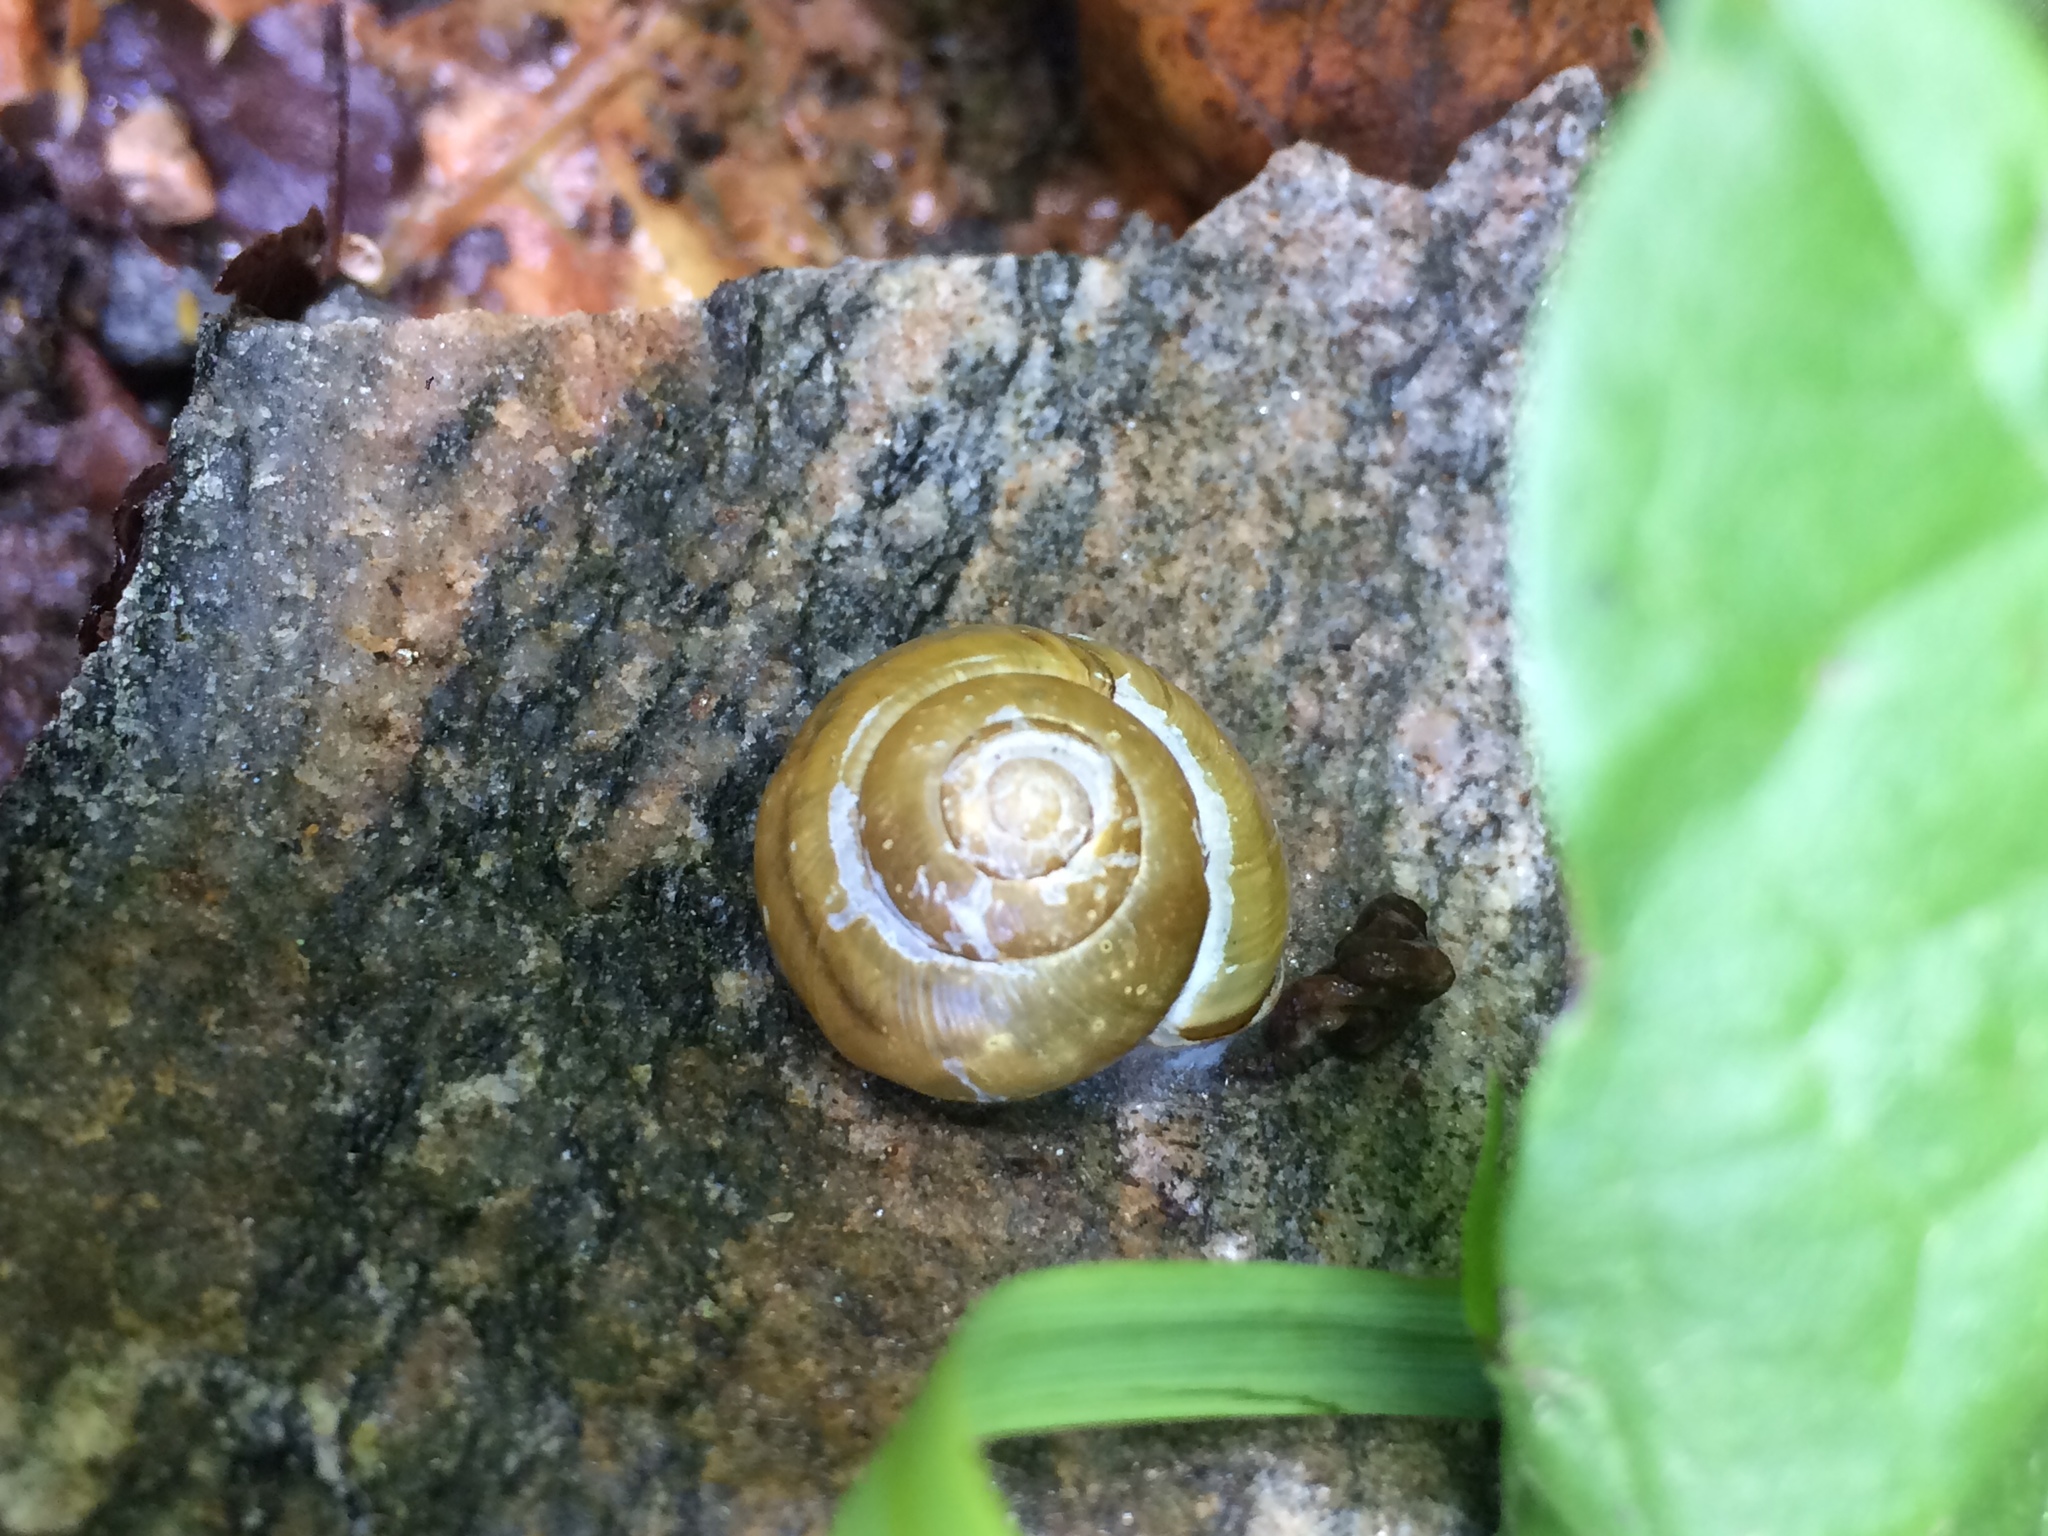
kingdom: Animalia
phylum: Mollusca
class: Gastropoda
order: Stylommatophora
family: Helicidae
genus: Cepaea
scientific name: Cepaea nemoralis
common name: Grovesnail
